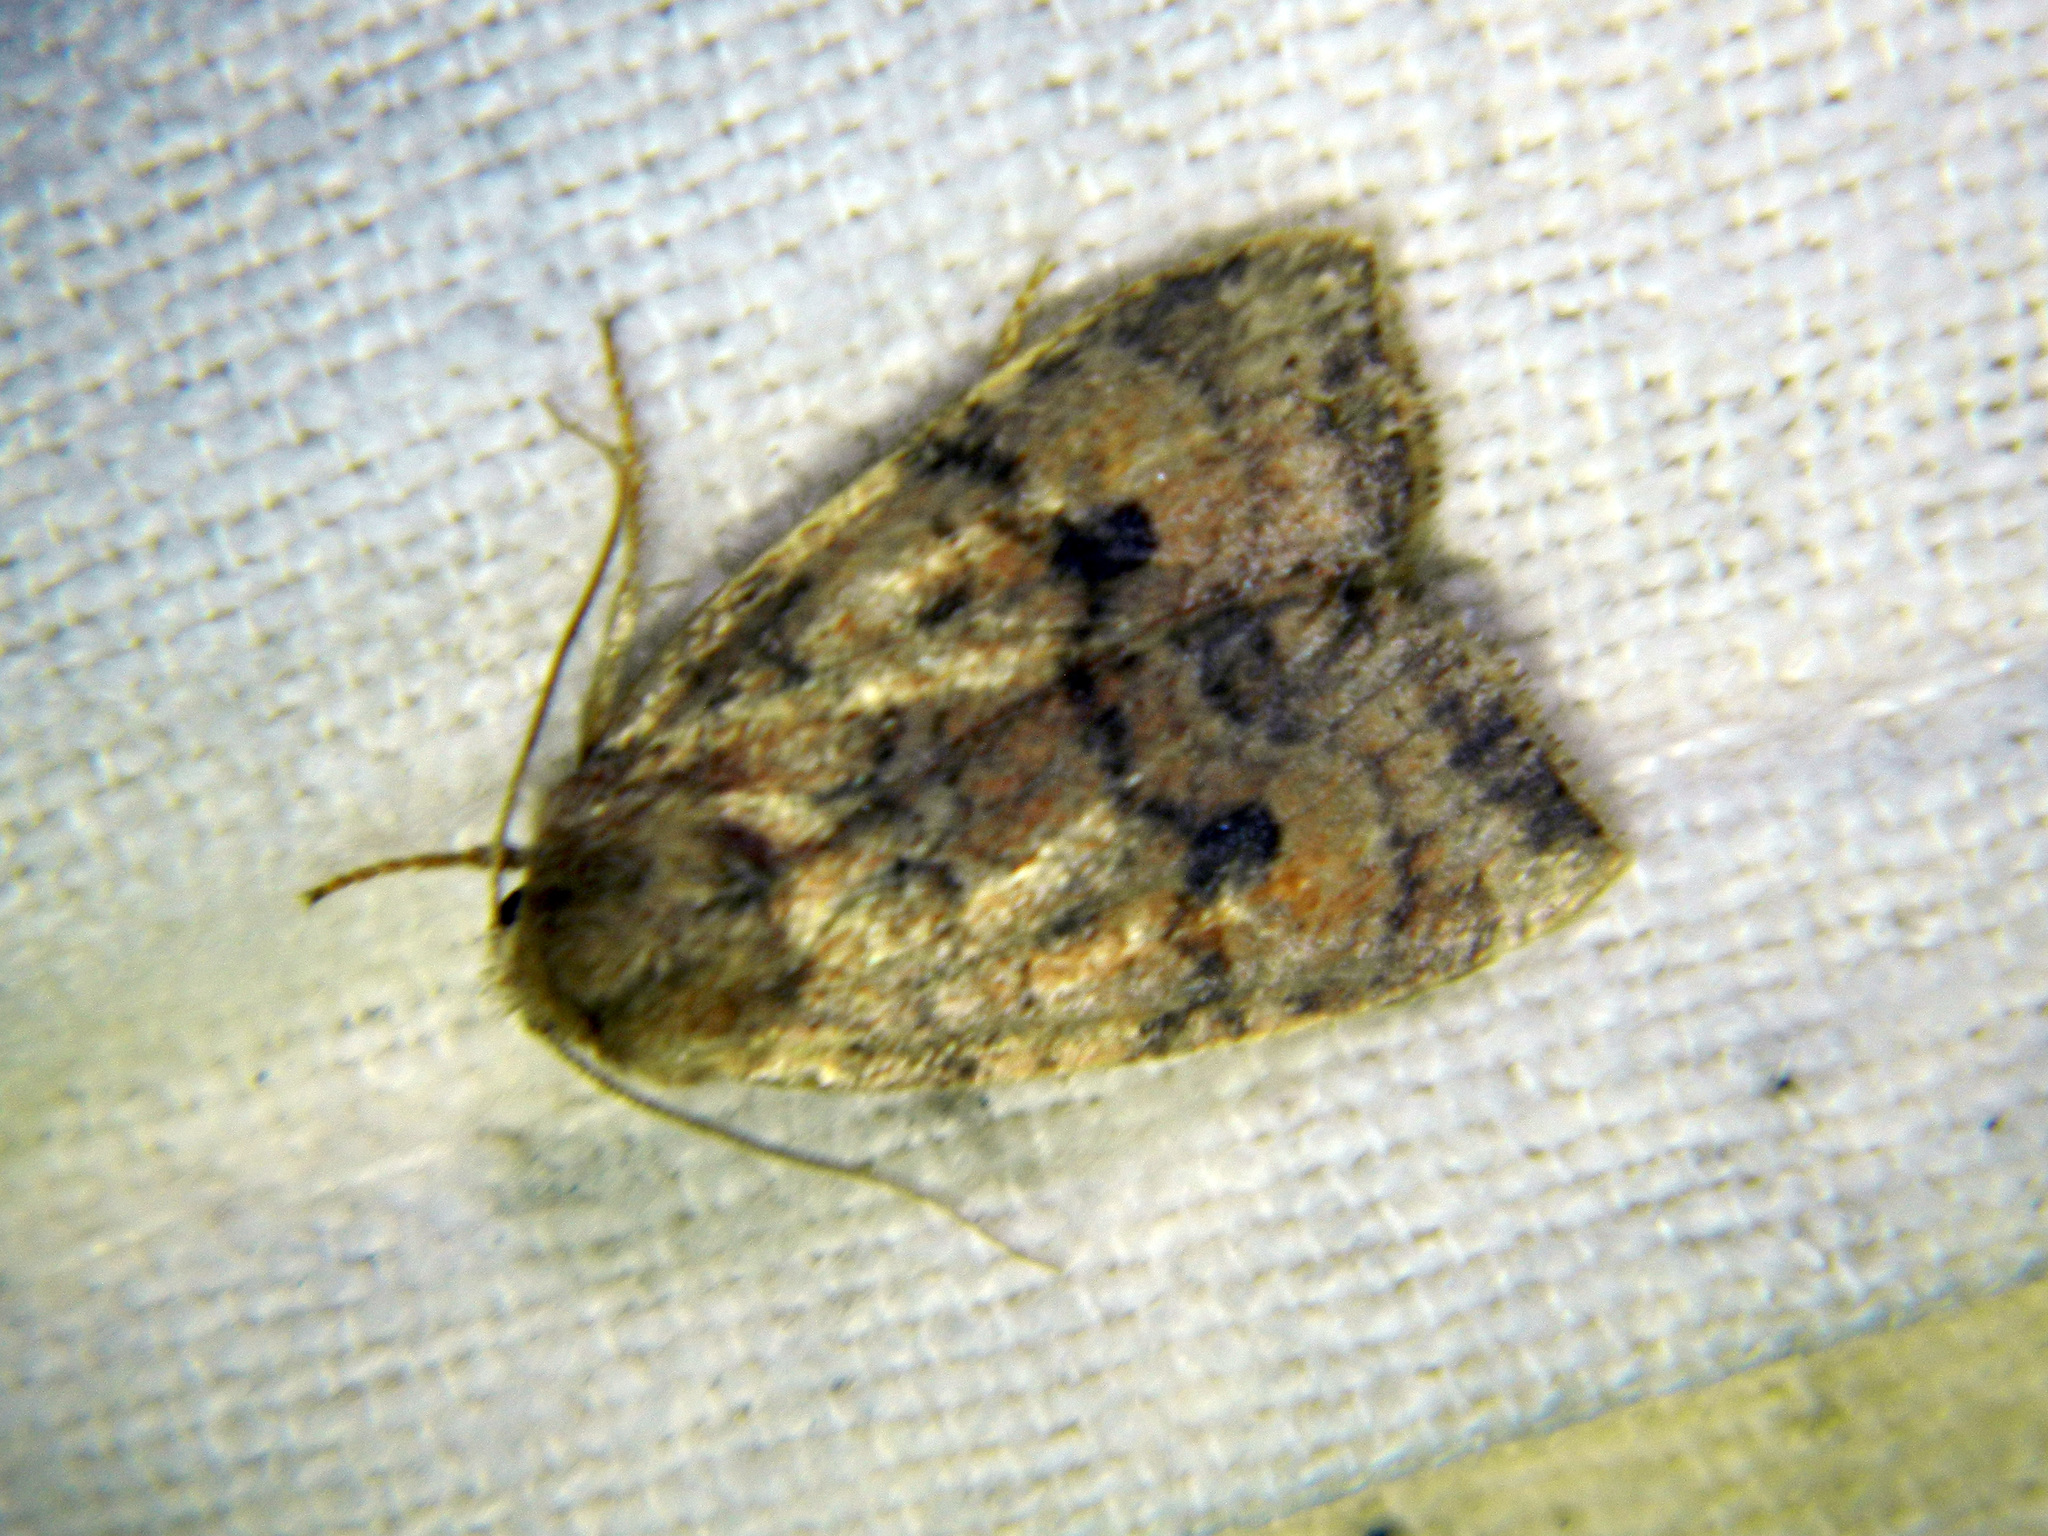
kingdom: Animalia
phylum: Arthropoda
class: Insecta
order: Lepidoptera
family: Noctuidae
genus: Anathix
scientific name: Anathix puta
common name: Puta sallow
